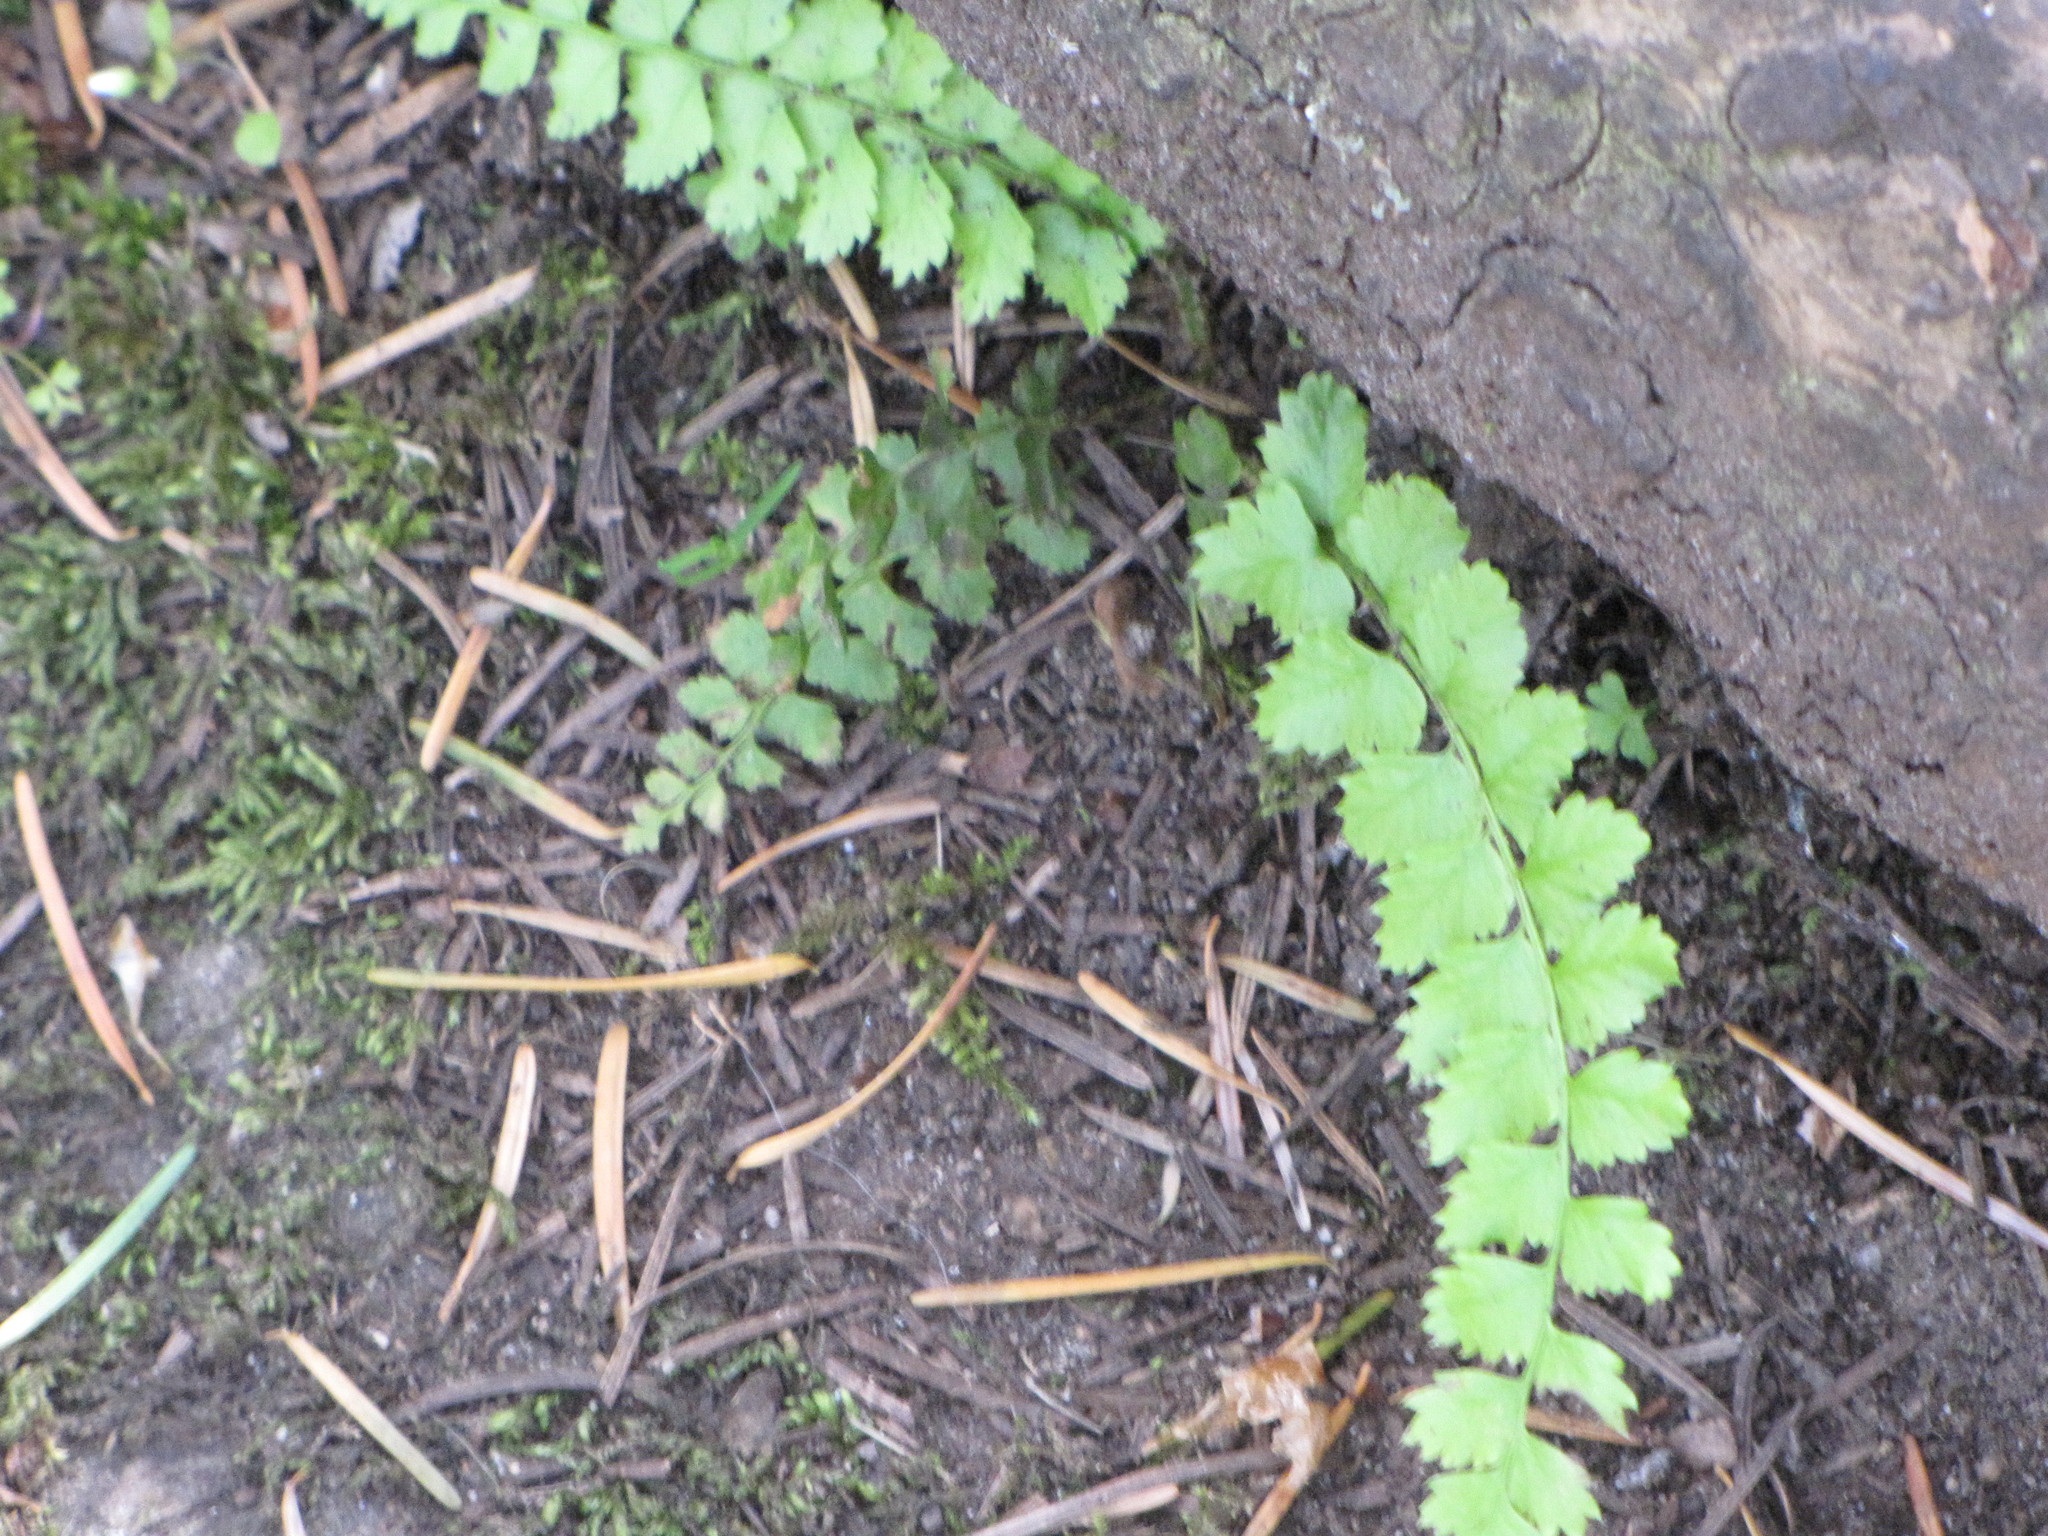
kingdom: Plantae
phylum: Tracheophyta
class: Polypodiopsida
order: Polypodiales
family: Dryopteridaceae
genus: Polystichum
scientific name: Polystichum munitum
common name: Western sword-fern
